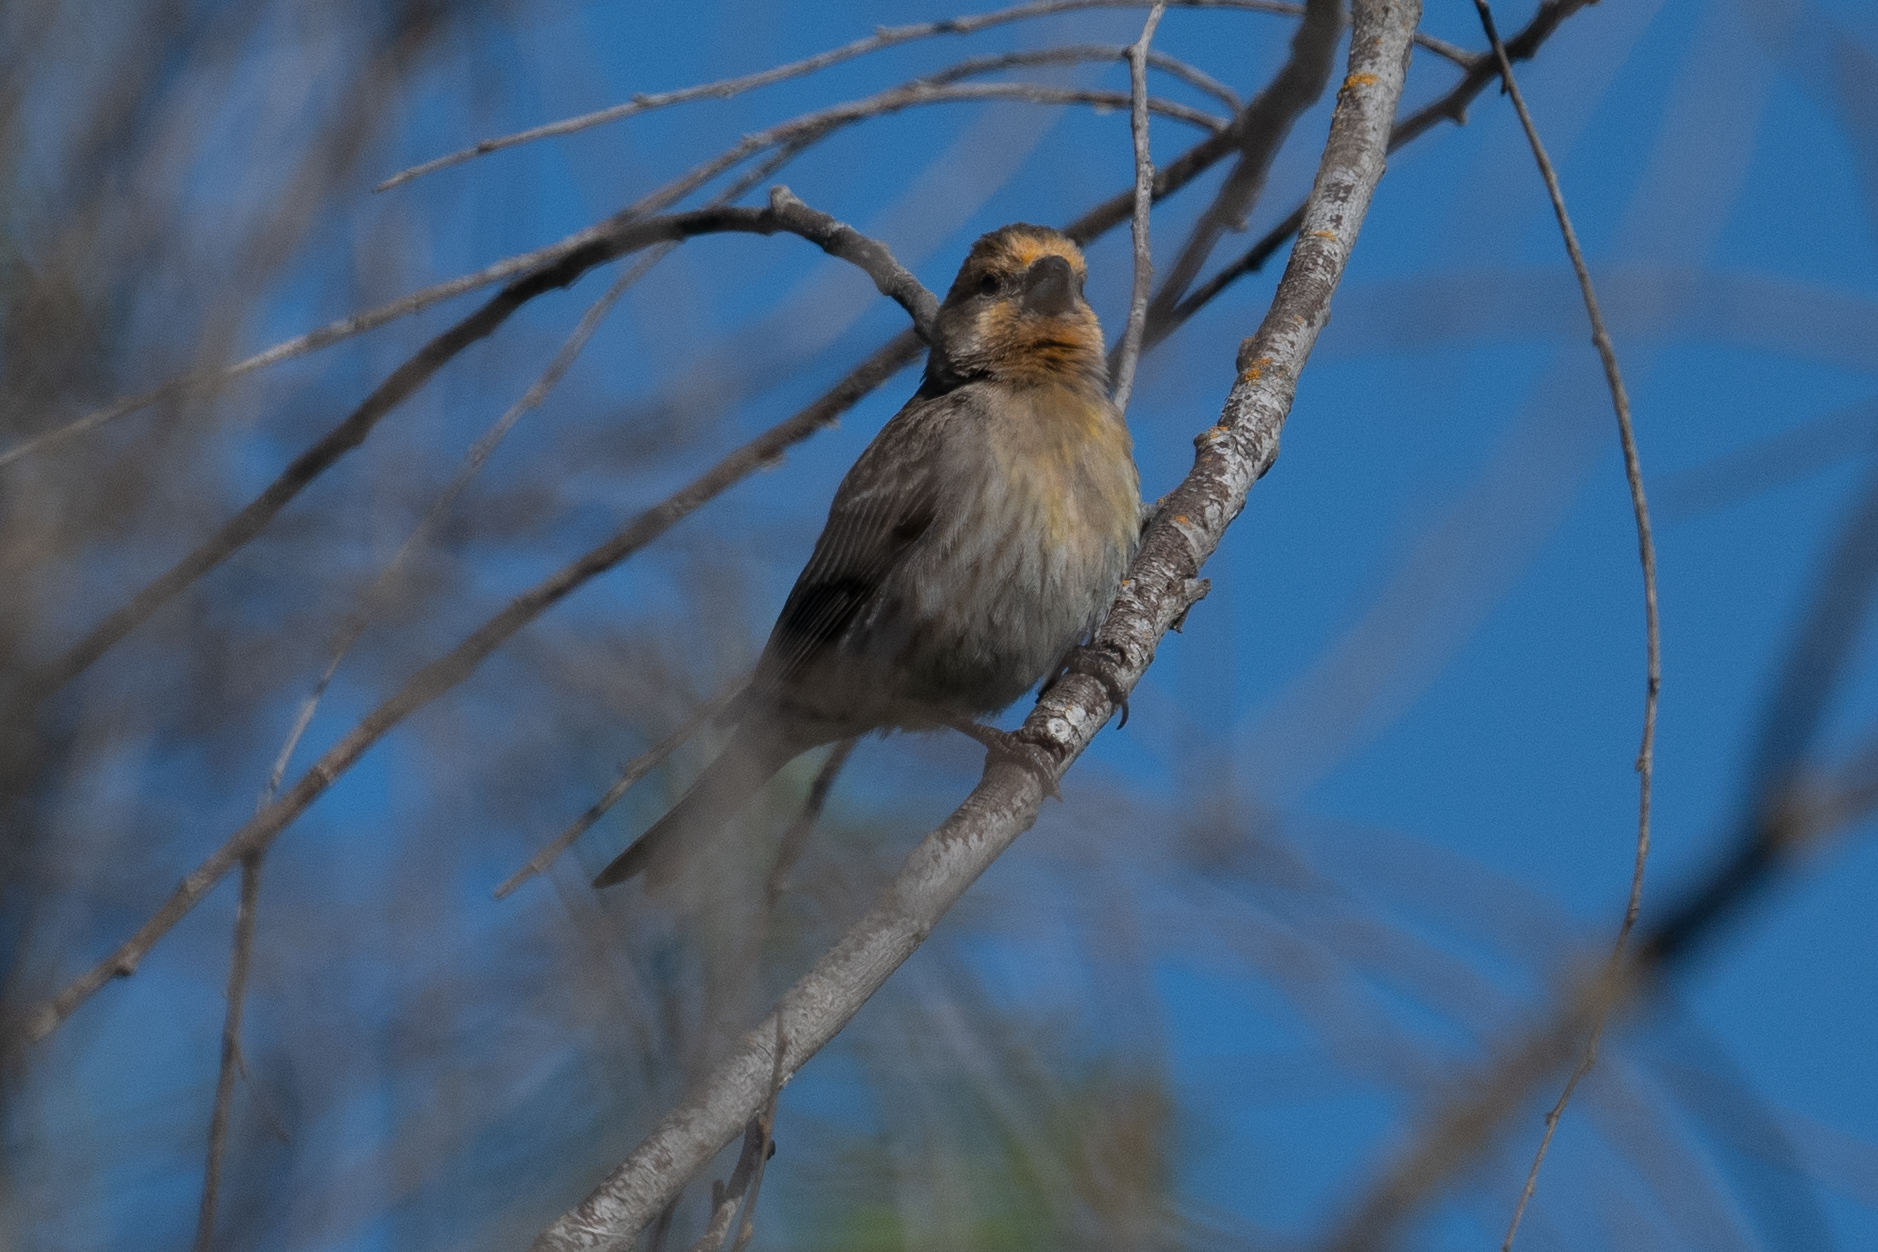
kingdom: Animalia
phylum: Chordata
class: Aves
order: Passeriformes
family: Fringillidae
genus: Haemorhous
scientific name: Haemorhous mexicanus
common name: House finch
